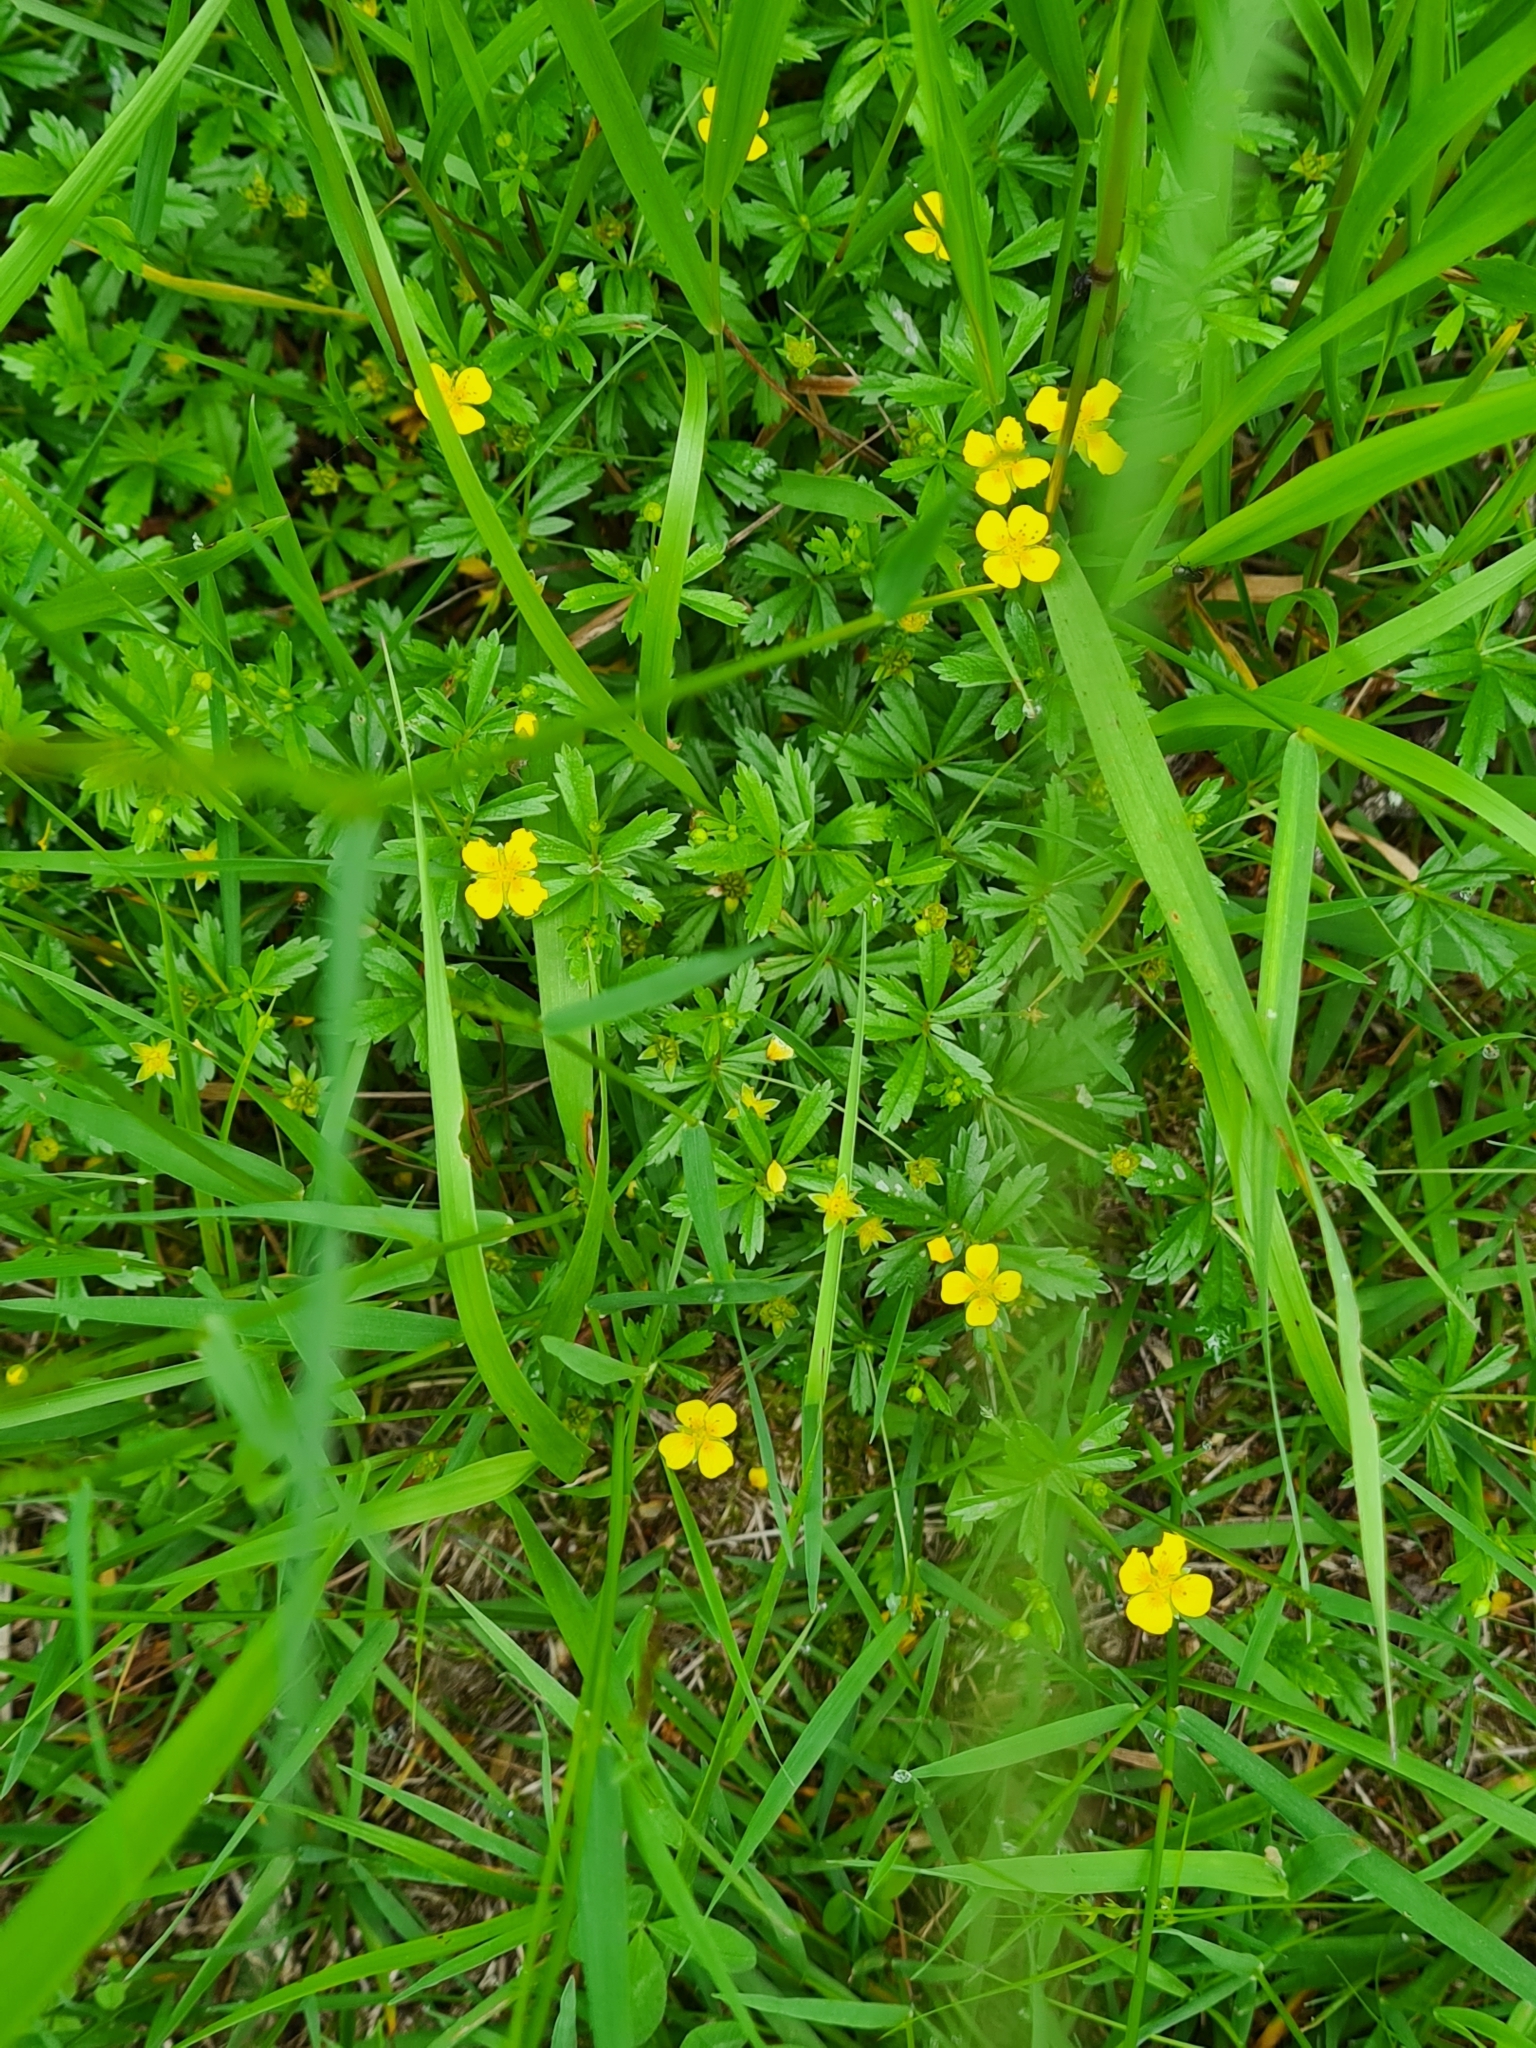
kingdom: Plantae
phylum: Tracheophyta
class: Magnoliopsida
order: Rosales
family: Rosaceae
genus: Potentilla
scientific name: Potentilla erecta
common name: Tormentil
